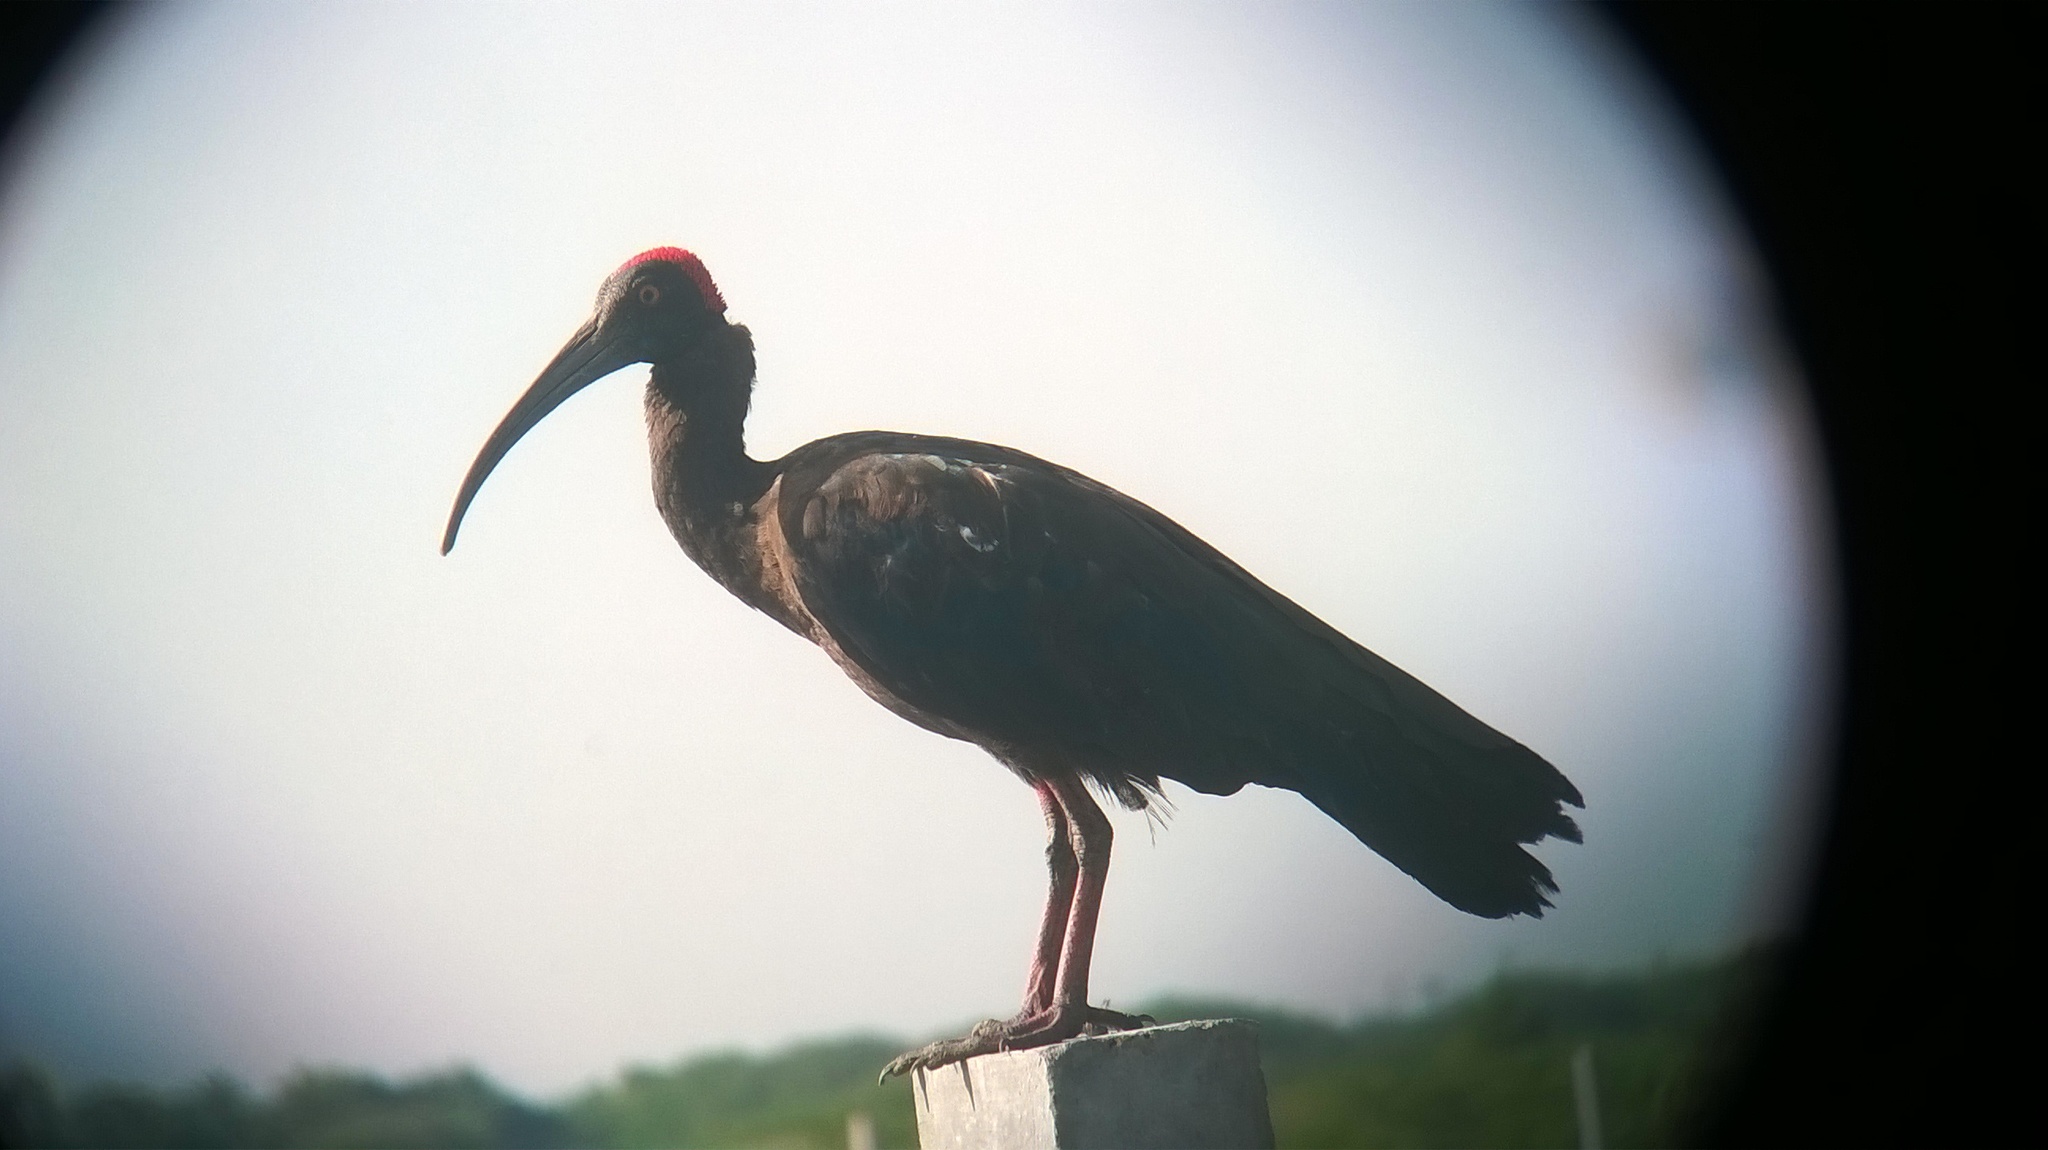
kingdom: Animalia
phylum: Chordata
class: Aves
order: Pelecaniformes
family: Threskiornithidae
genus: Pseudibis
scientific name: Pseudibis papillosa
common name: Red-naped ibis
